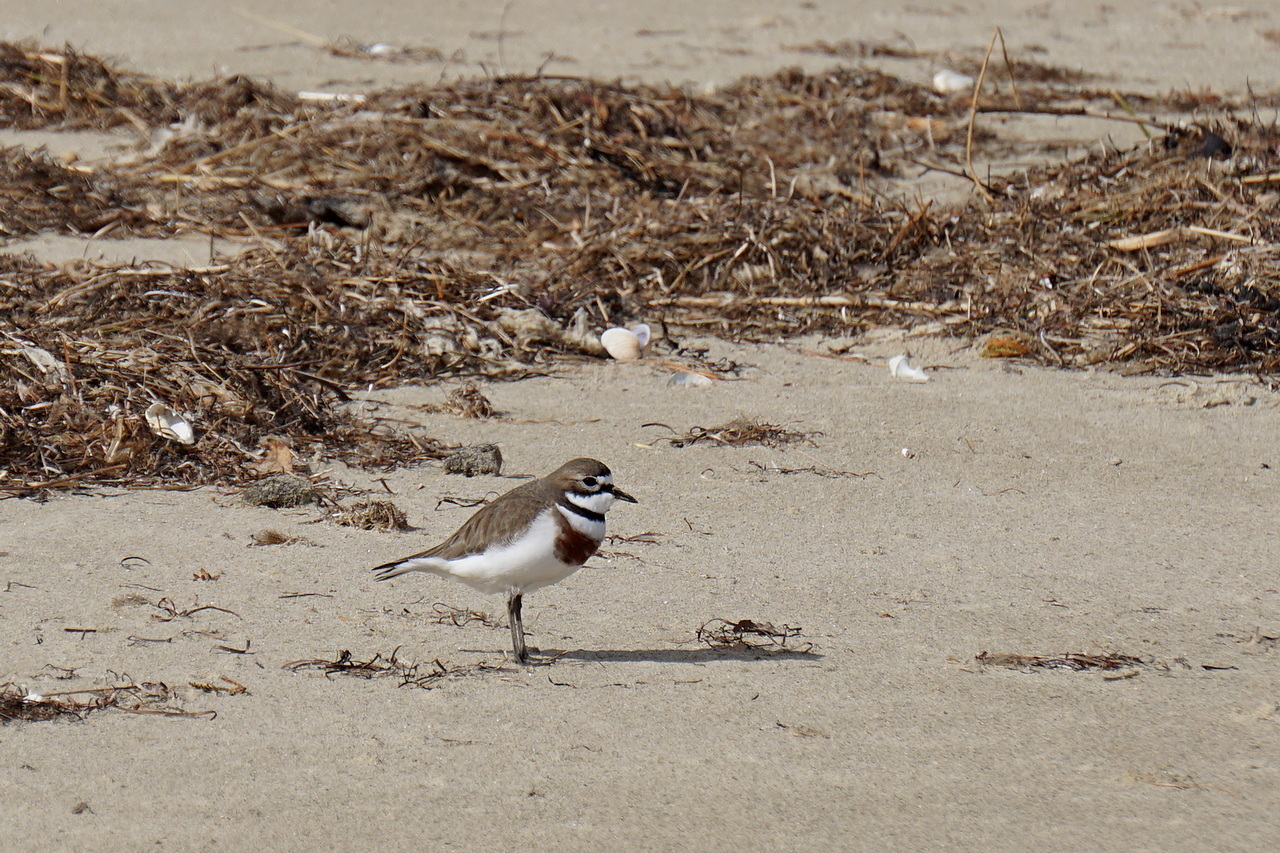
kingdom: Animalia
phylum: Chordata
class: Aves
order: Charadriiformes
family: Charadriidae
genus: Anarhynchus
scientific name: Anarhynchus
